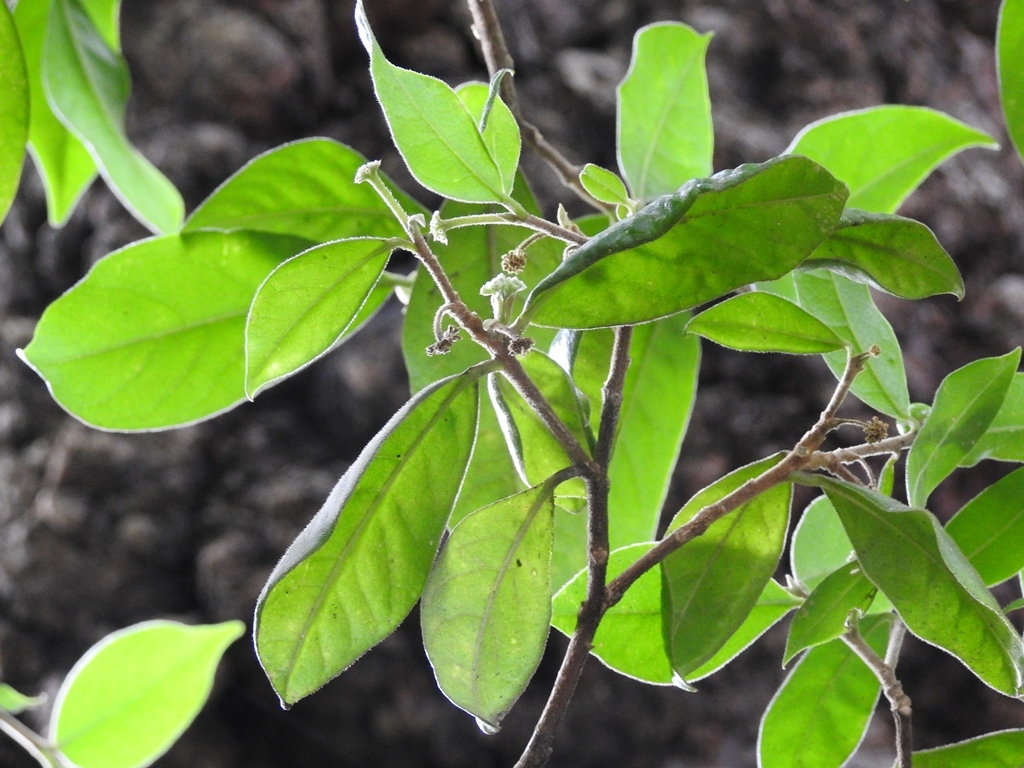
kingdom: Plantae
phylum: Tracheophyta
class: Magnoliopsida
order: Malvales
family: Thymelaeaceae
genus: Daphnopsis
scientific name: Daphnopsis selerorum
